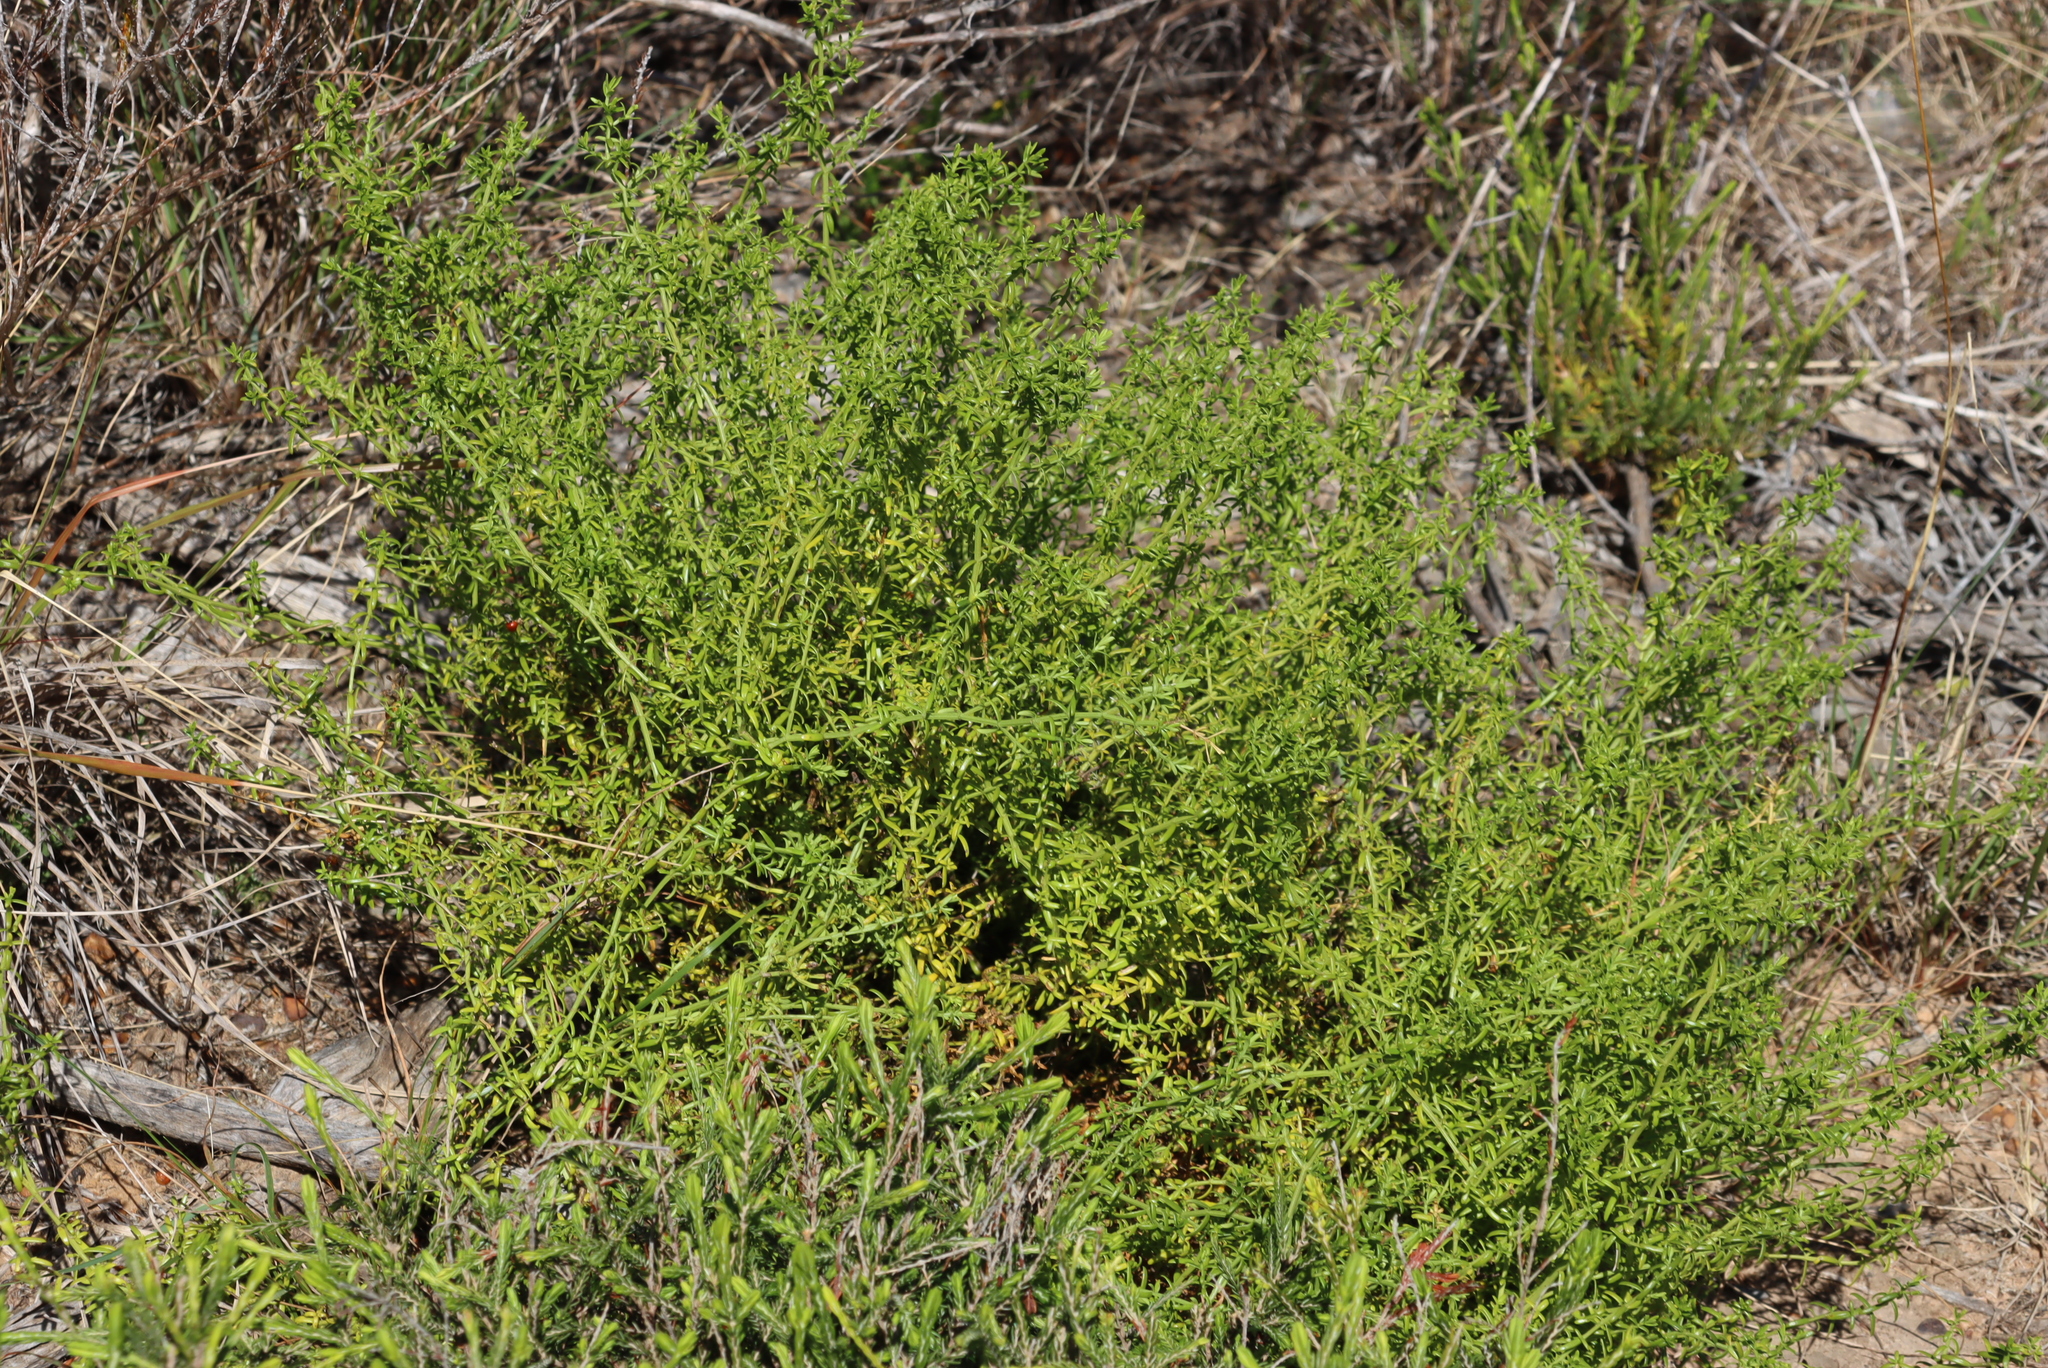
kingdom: Plantae
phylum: Tracheophyta
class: Magnoliopsida
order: Gentianales
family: Gentianaceae
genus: Chironia
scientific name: Chironia baccifera
